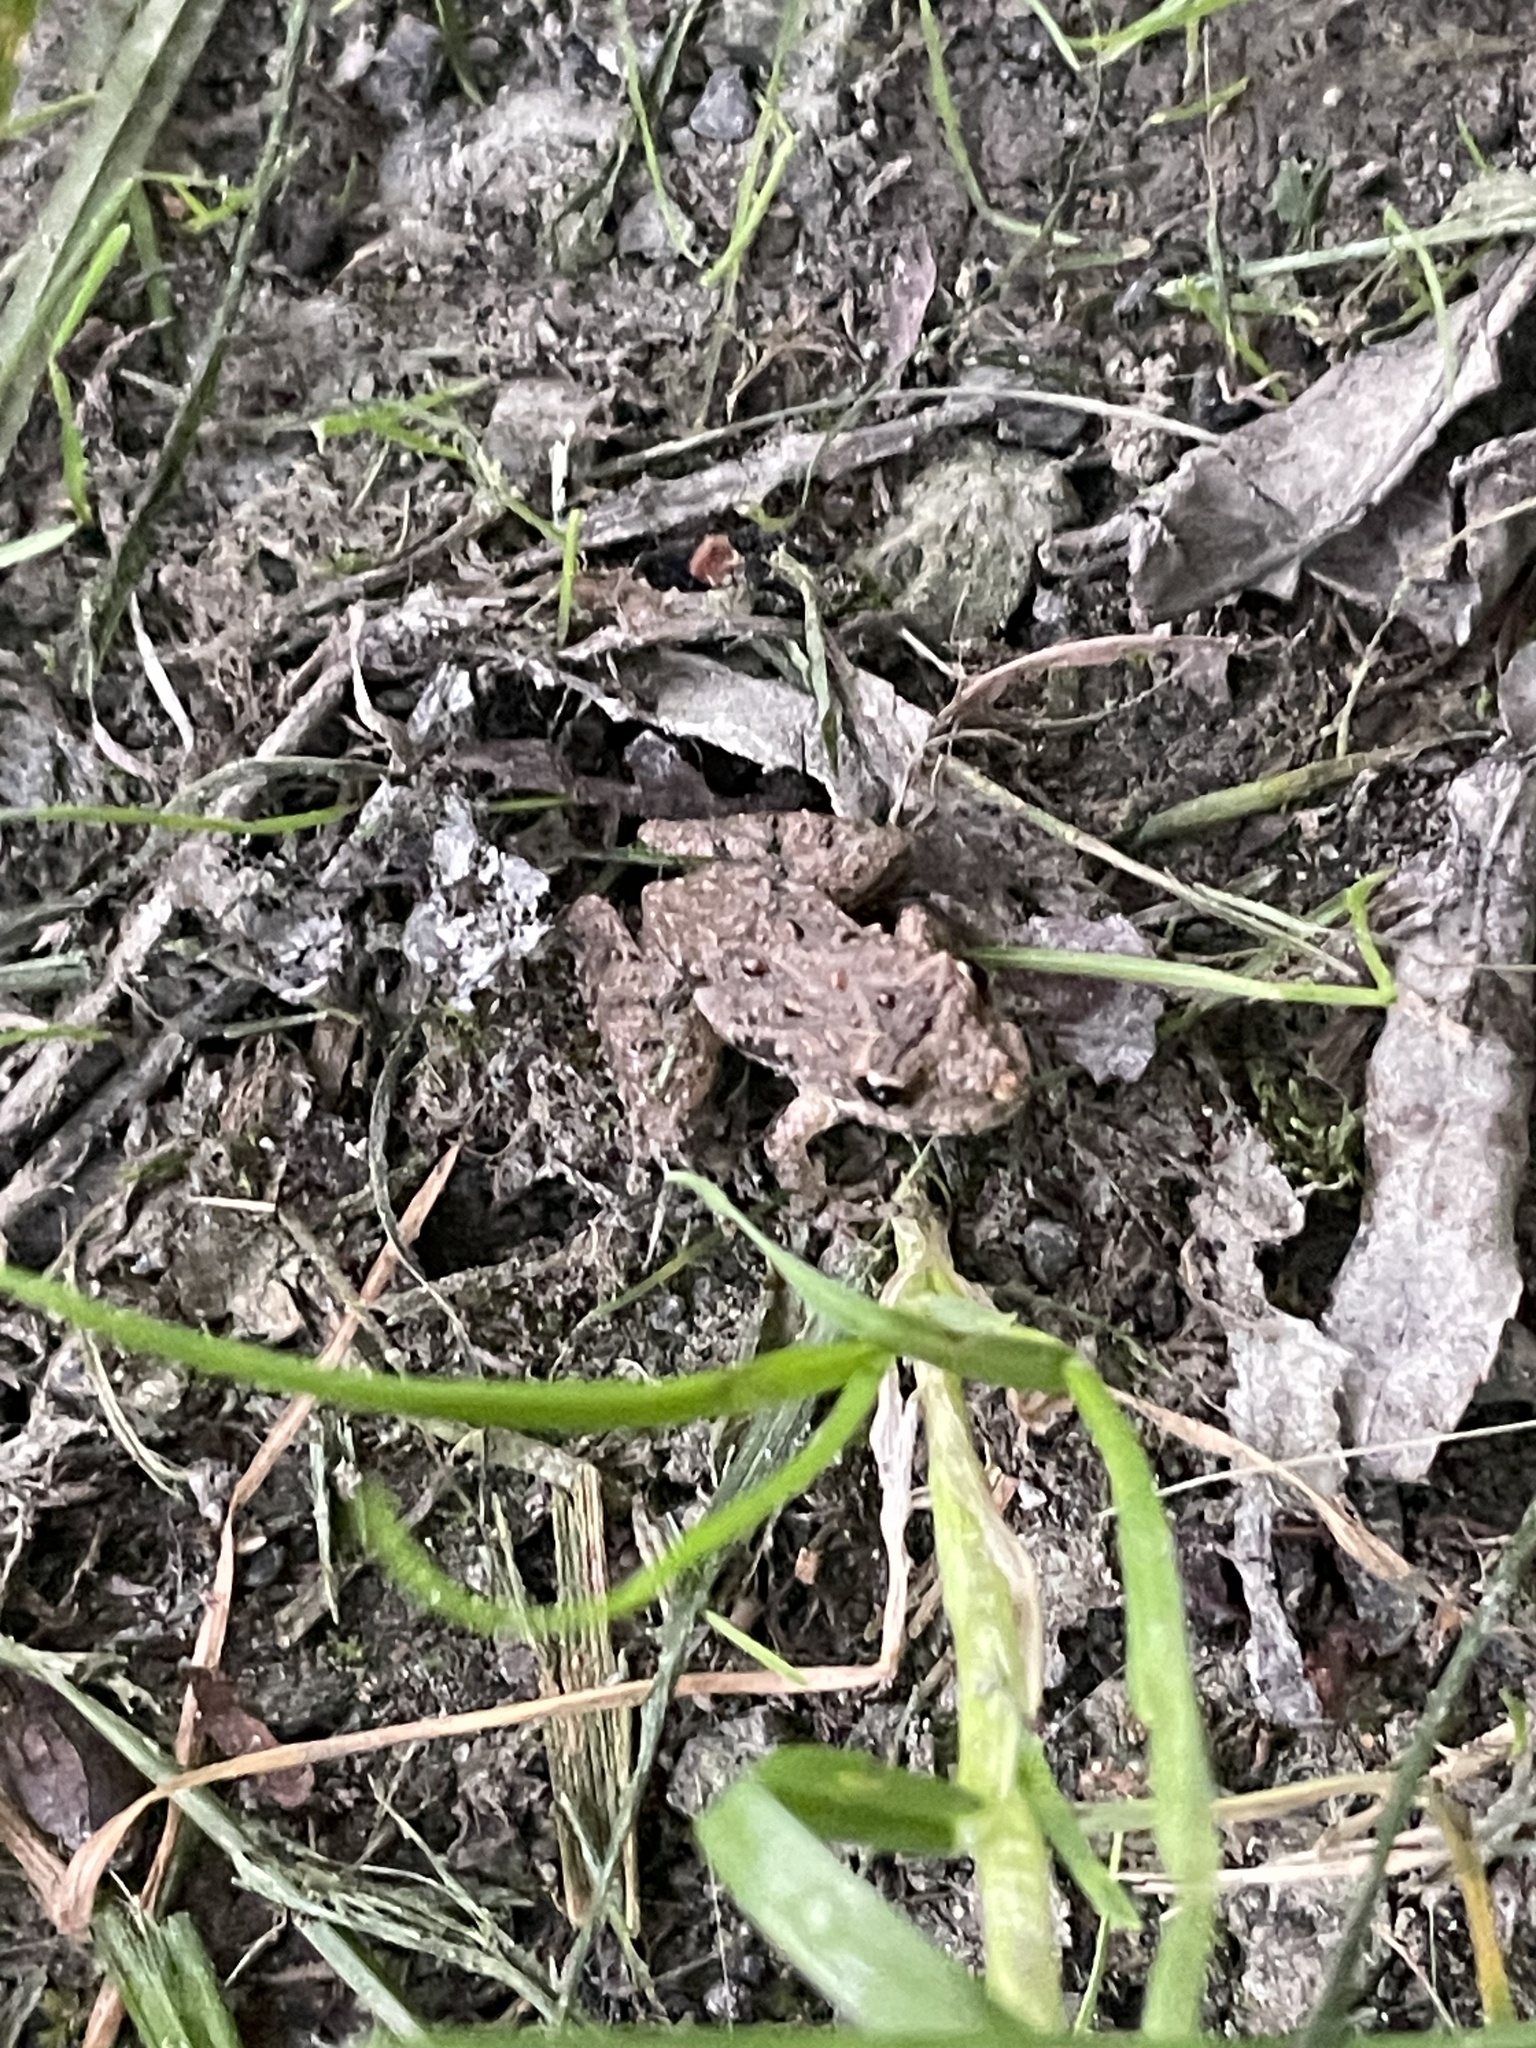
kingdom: Animalia
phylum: Chordata
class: Amphibia
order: Anura
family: Hylidae
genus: Acris
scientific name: Acris crepitans
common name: Northern cricket frog
